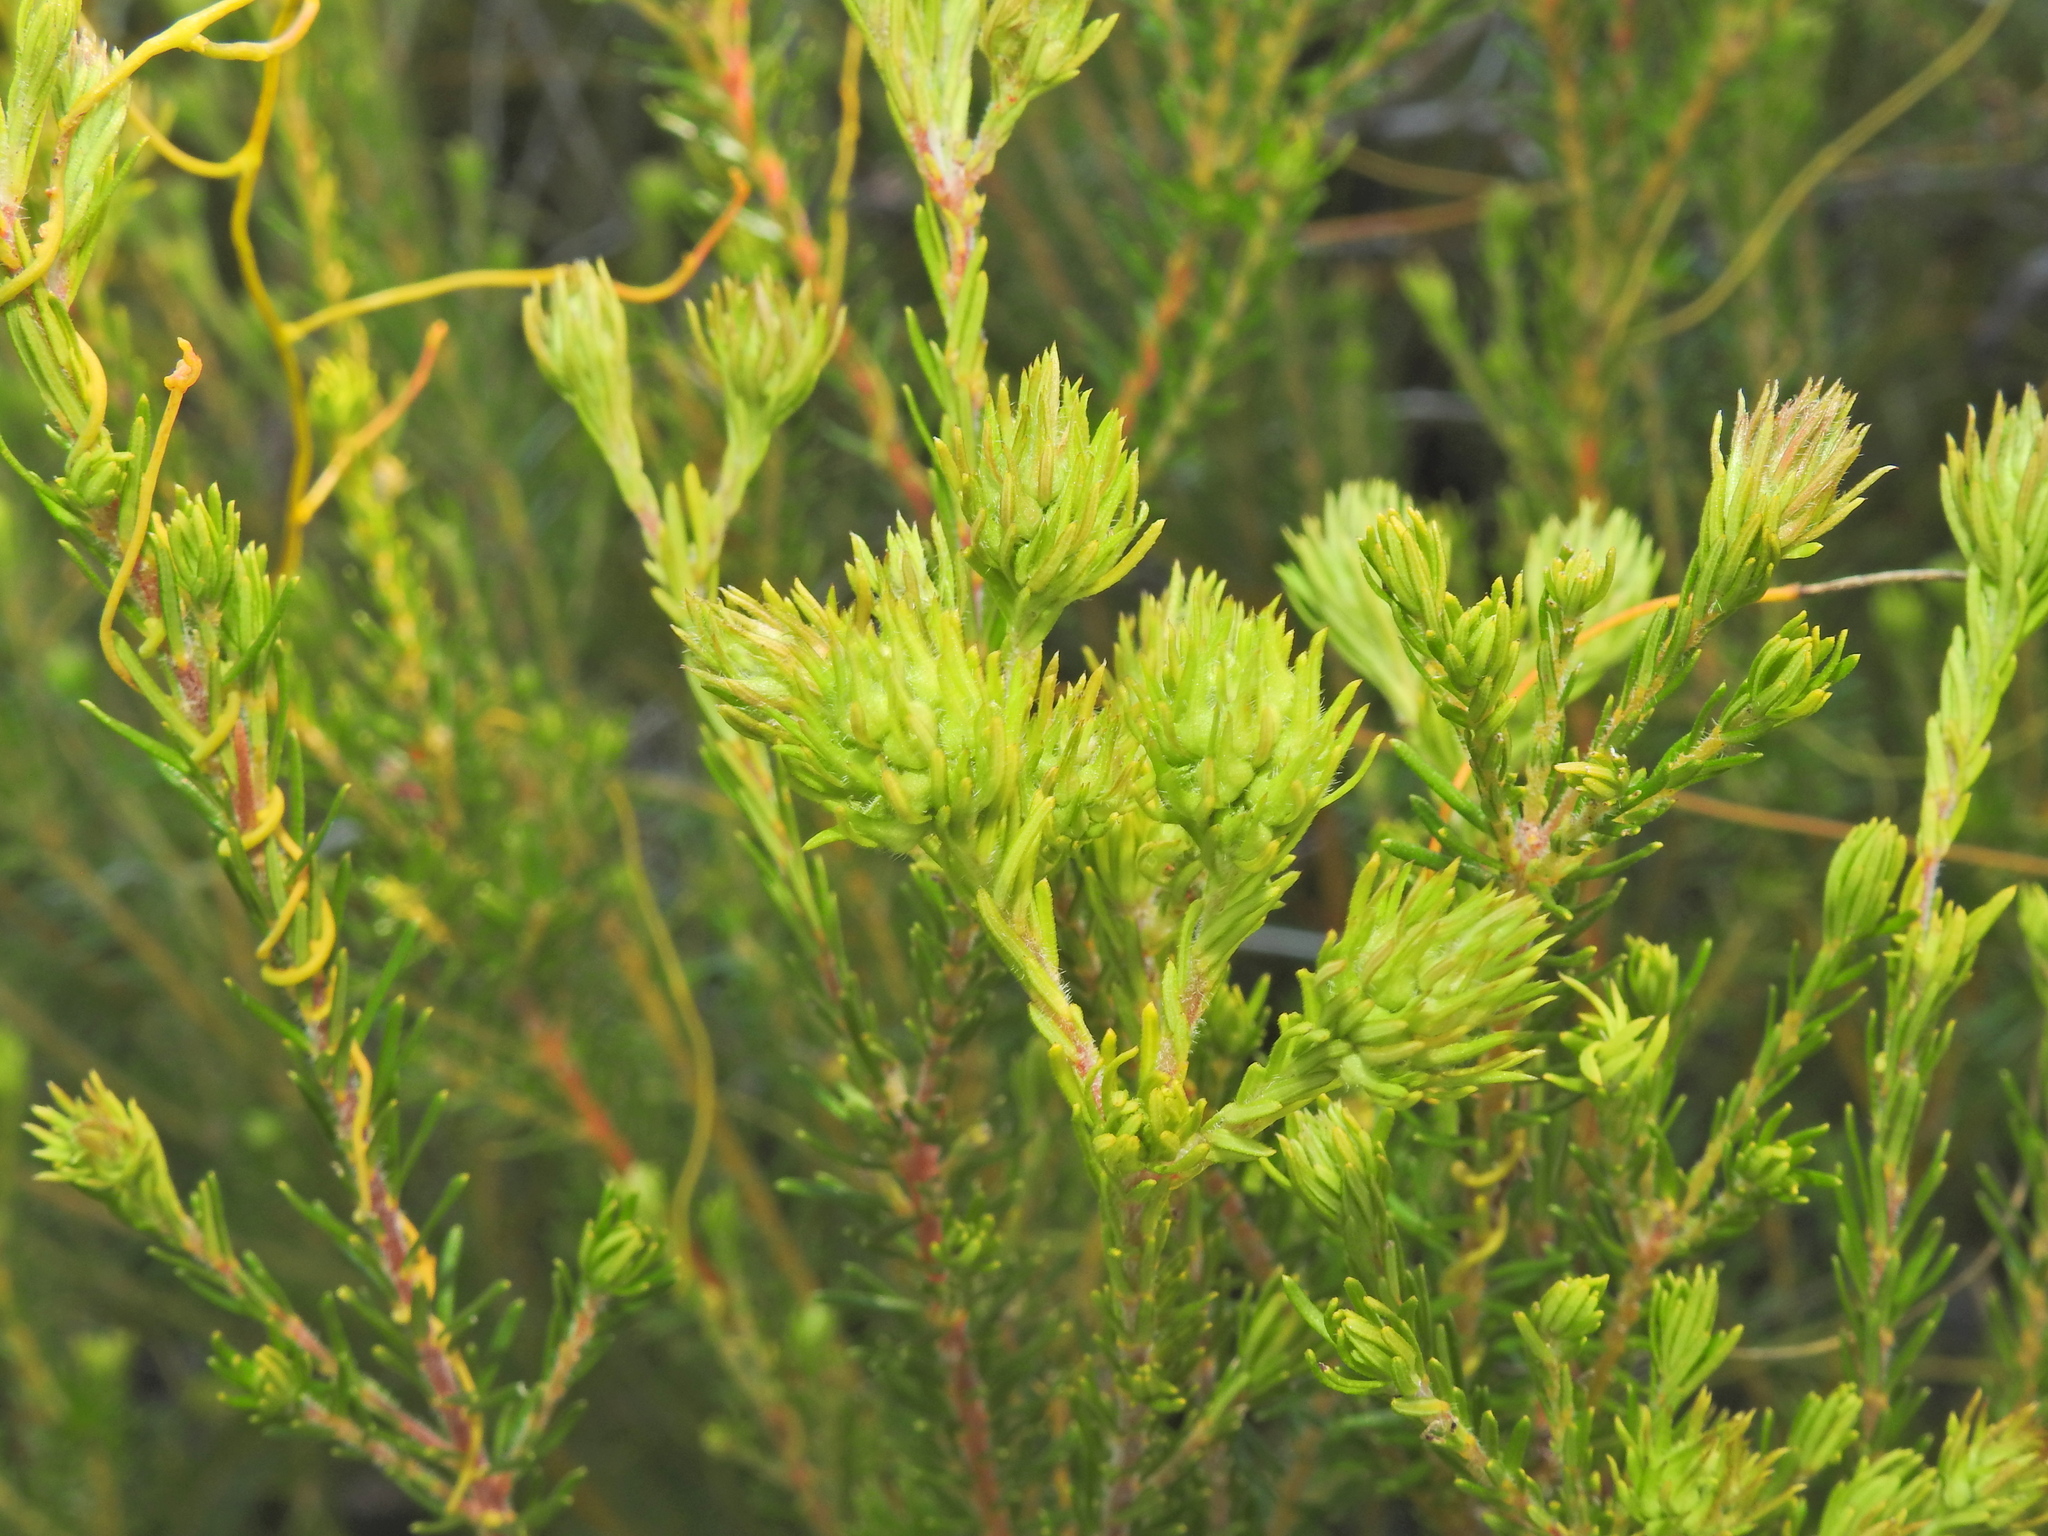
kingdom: Plantae
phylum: Tracheophyta
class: Magnoliopsida
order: Fabales
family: Fabaceae
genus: Phyllota
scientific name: Phyllota phylicoides
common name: Heath phyllota
